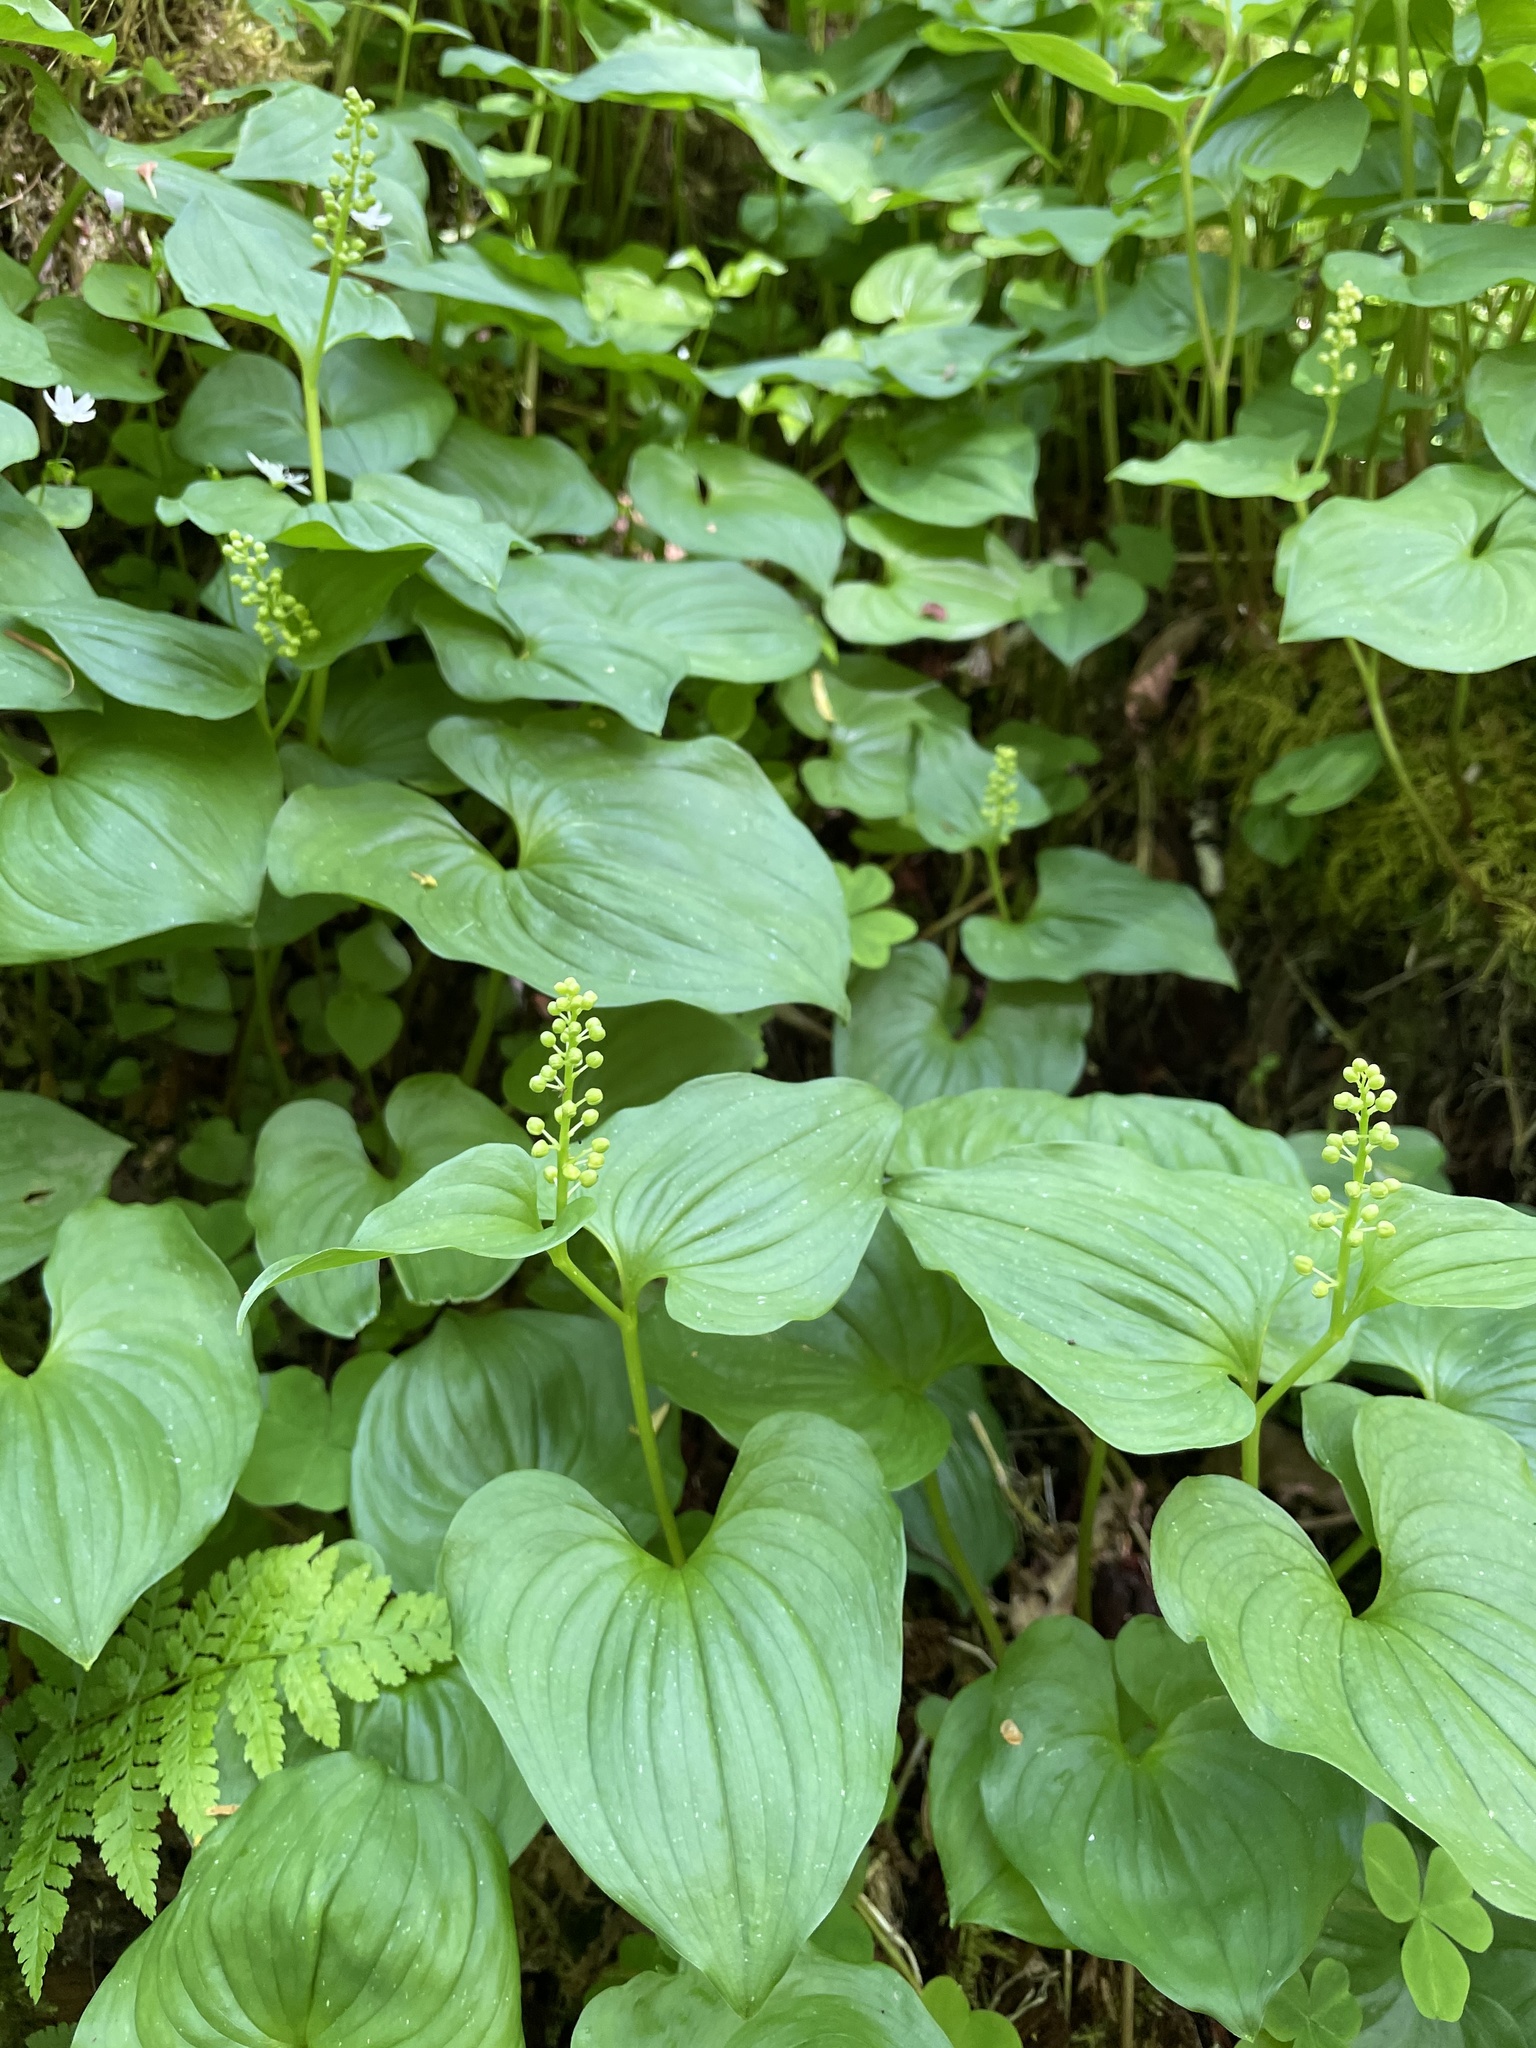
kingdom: Plantae
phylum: Tracheophyta
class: Liliopsida
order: Asparagales
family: Asparagaceae
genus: Maianthemum
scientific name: Maianthemum dilatatum
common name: False lily-of-the-valley
